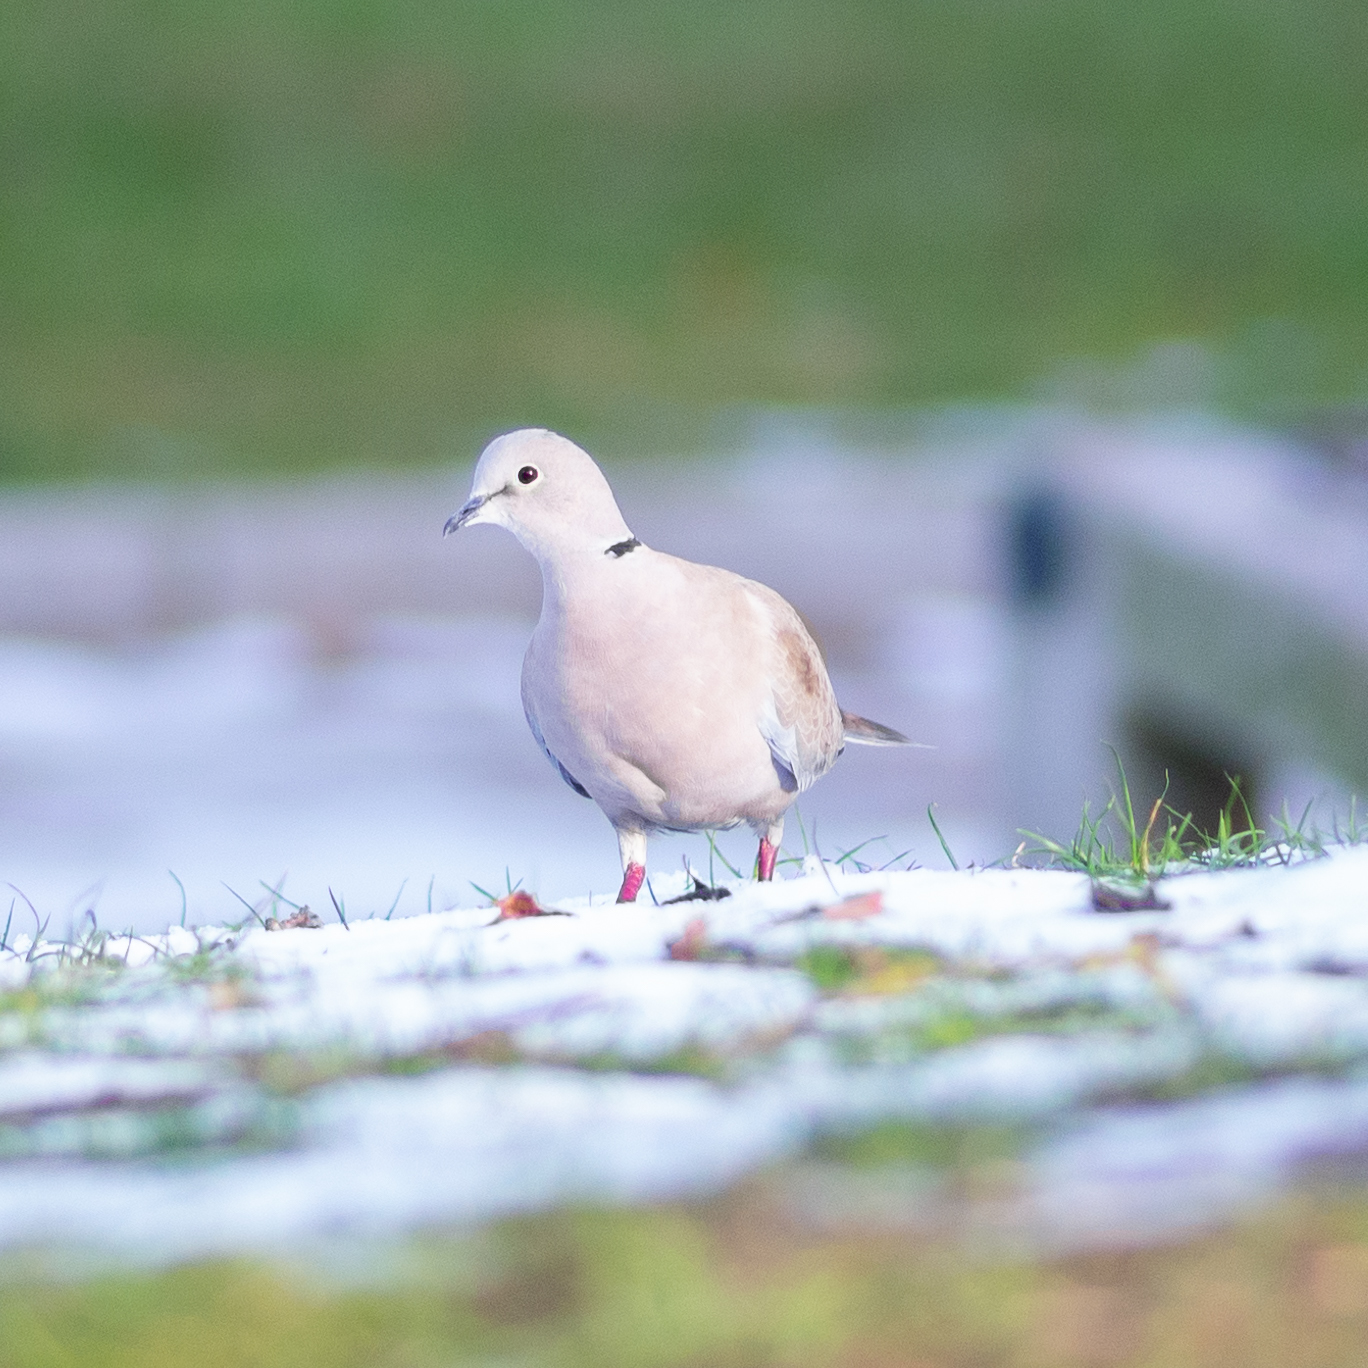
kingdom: Animalia
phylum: Chordata
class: Aves
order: Columbiformes
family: Columbidae
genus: Streptopelia
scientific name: Streptopelia decaocto
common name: Eurasian collared dove
